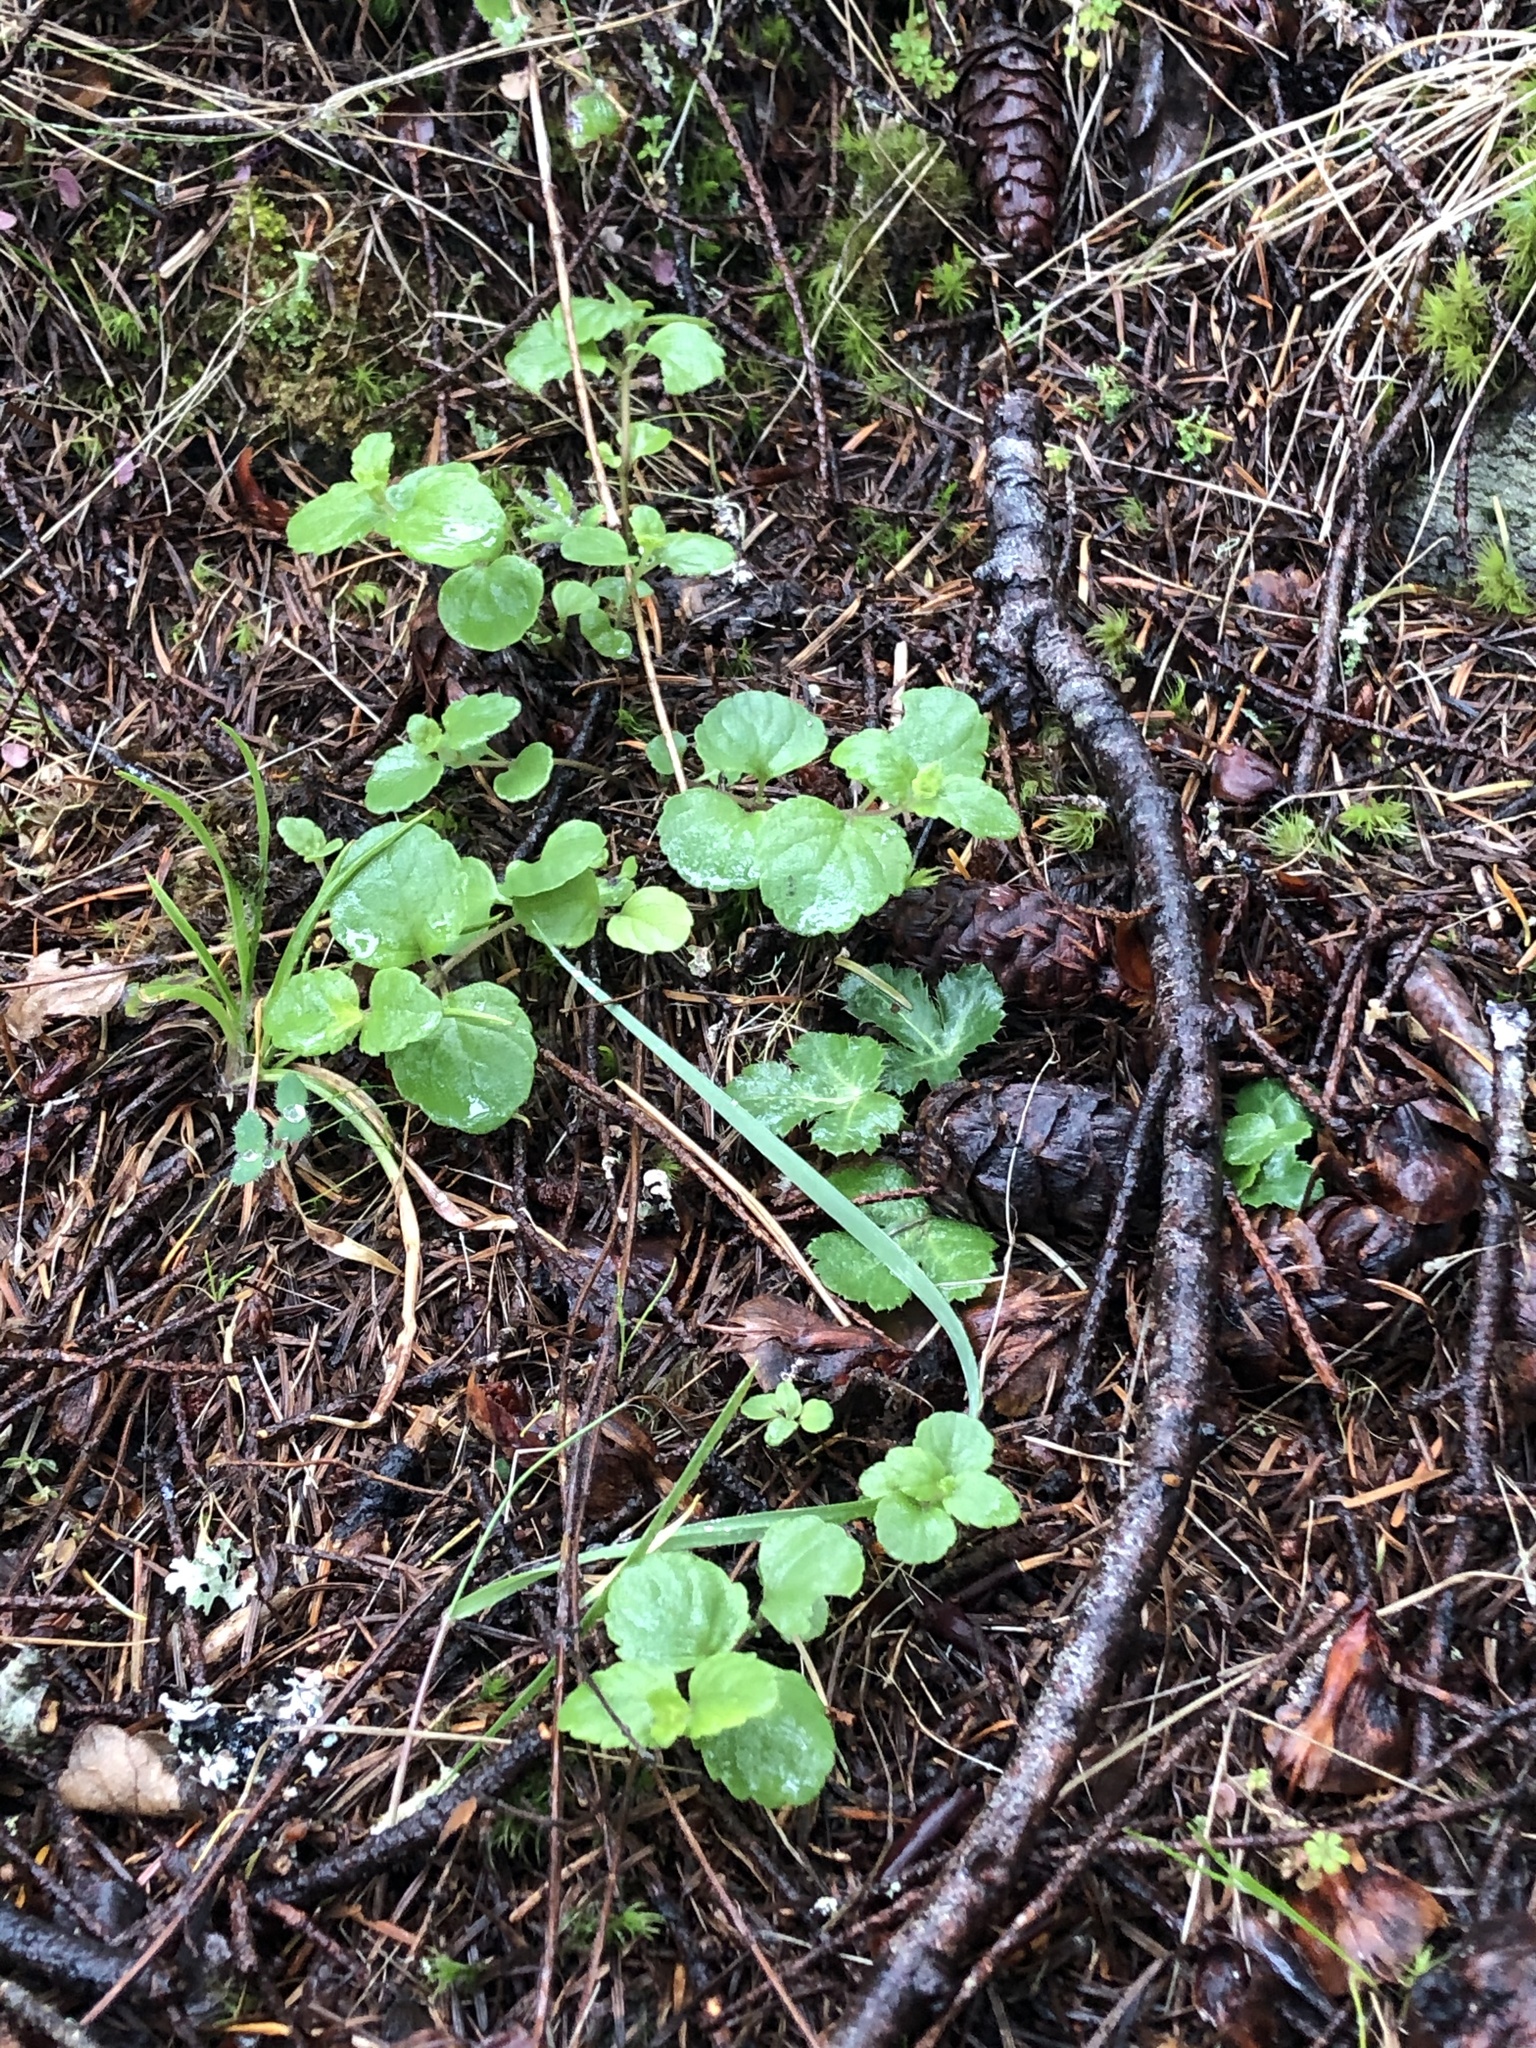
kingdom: Plantae
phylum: Tracheophyta
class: Magnoliopsida
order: Lamiales
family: Lamiaceae
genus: Micromeria
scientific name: Micromeria douglasii
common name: Yerba buena
